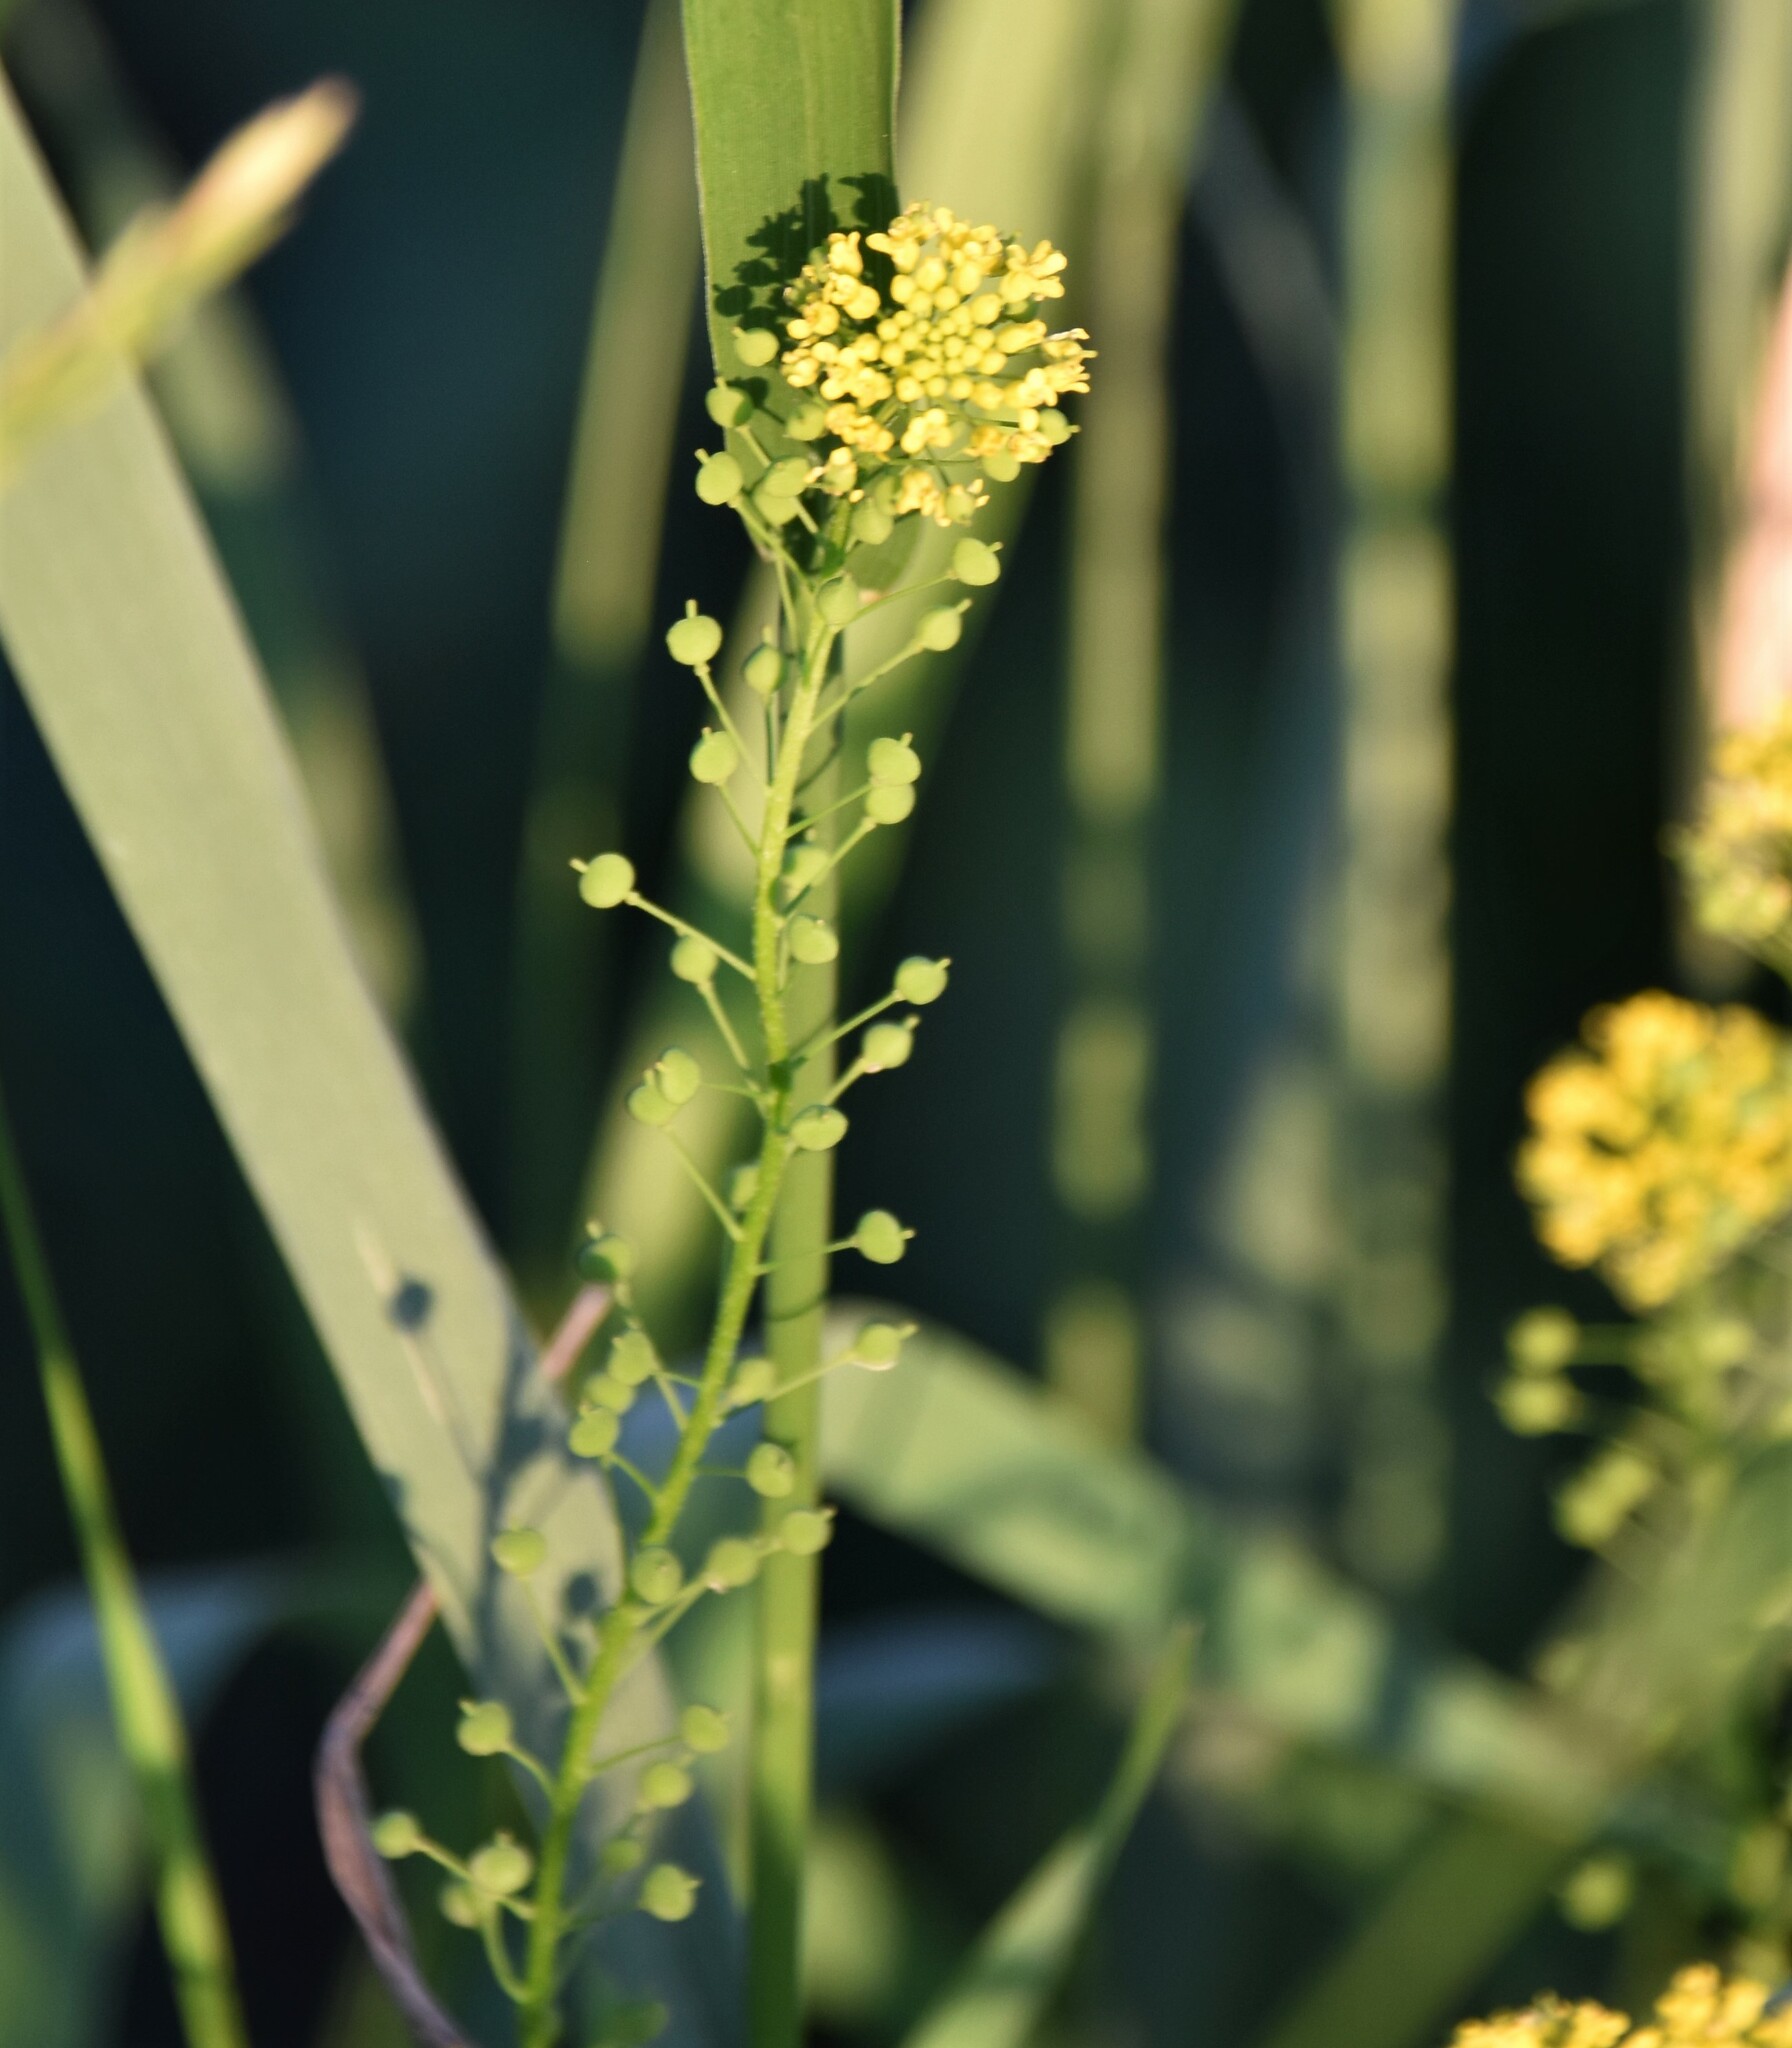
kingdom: Plantae
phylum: Tracheophyta
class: Magnoliopsida
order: Brassicales
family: Brassicaceae
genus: Neslia
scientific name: Neslia paniculata
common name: Ball mustard
